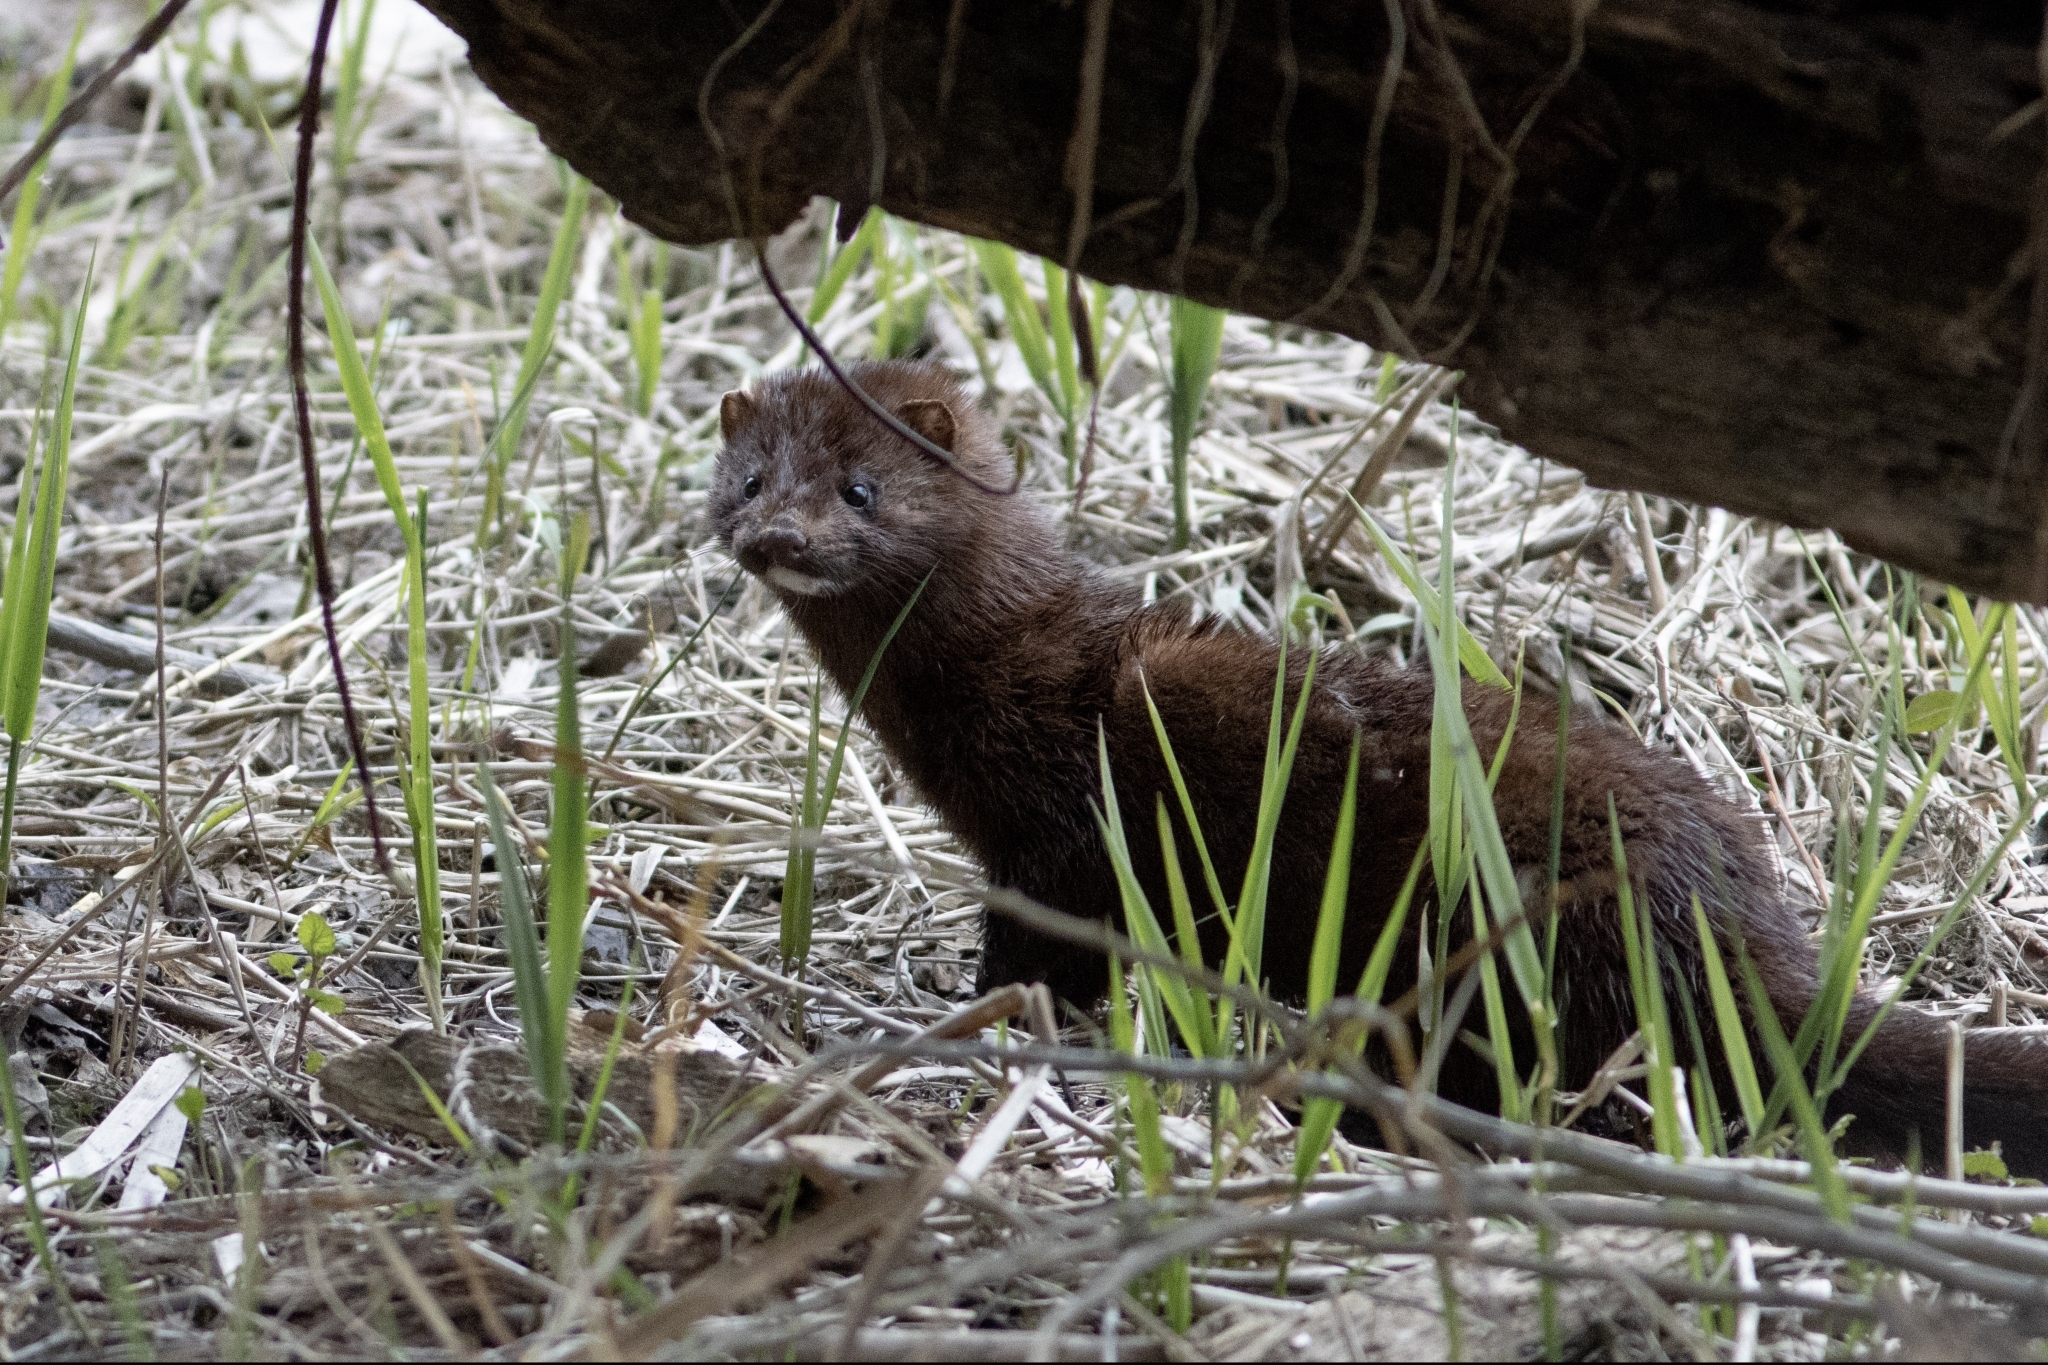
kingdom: Animalia
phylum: Chordata
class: Mammalia
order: Carnivora
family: Mustelidae
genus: Mustela
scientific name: Mustela
